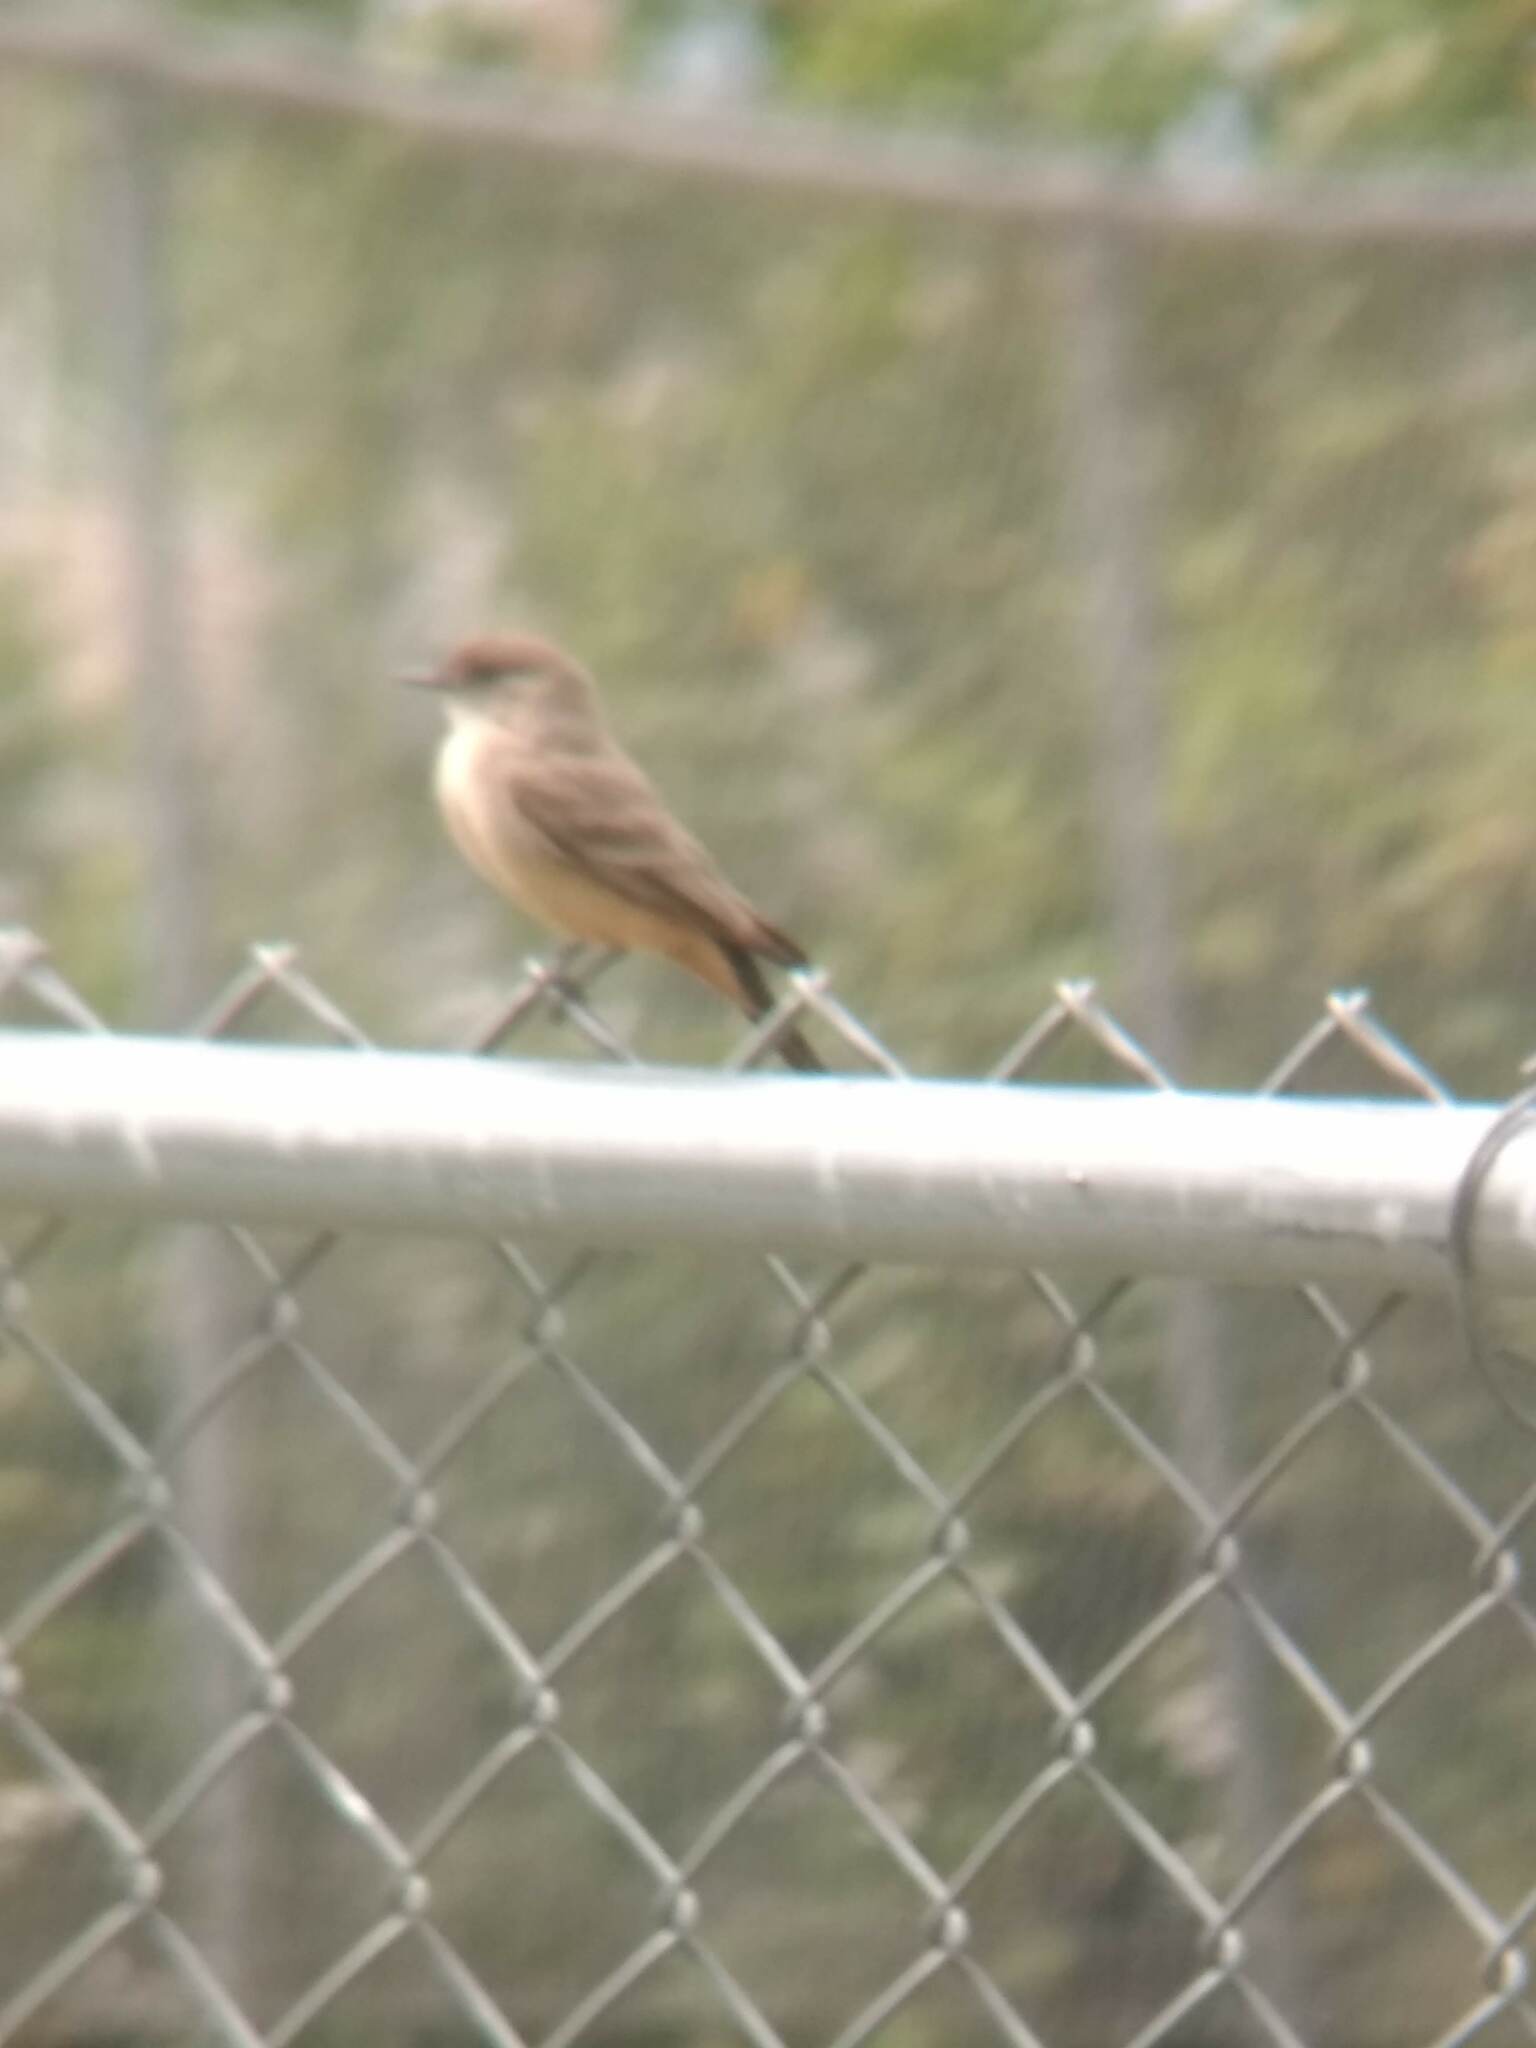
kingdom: Animalia
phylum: Chordata
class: Aves
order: Passeriformes
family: Tyrannidae
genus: Sayornis
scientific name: Sayornis saya
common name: Say's phoebe
